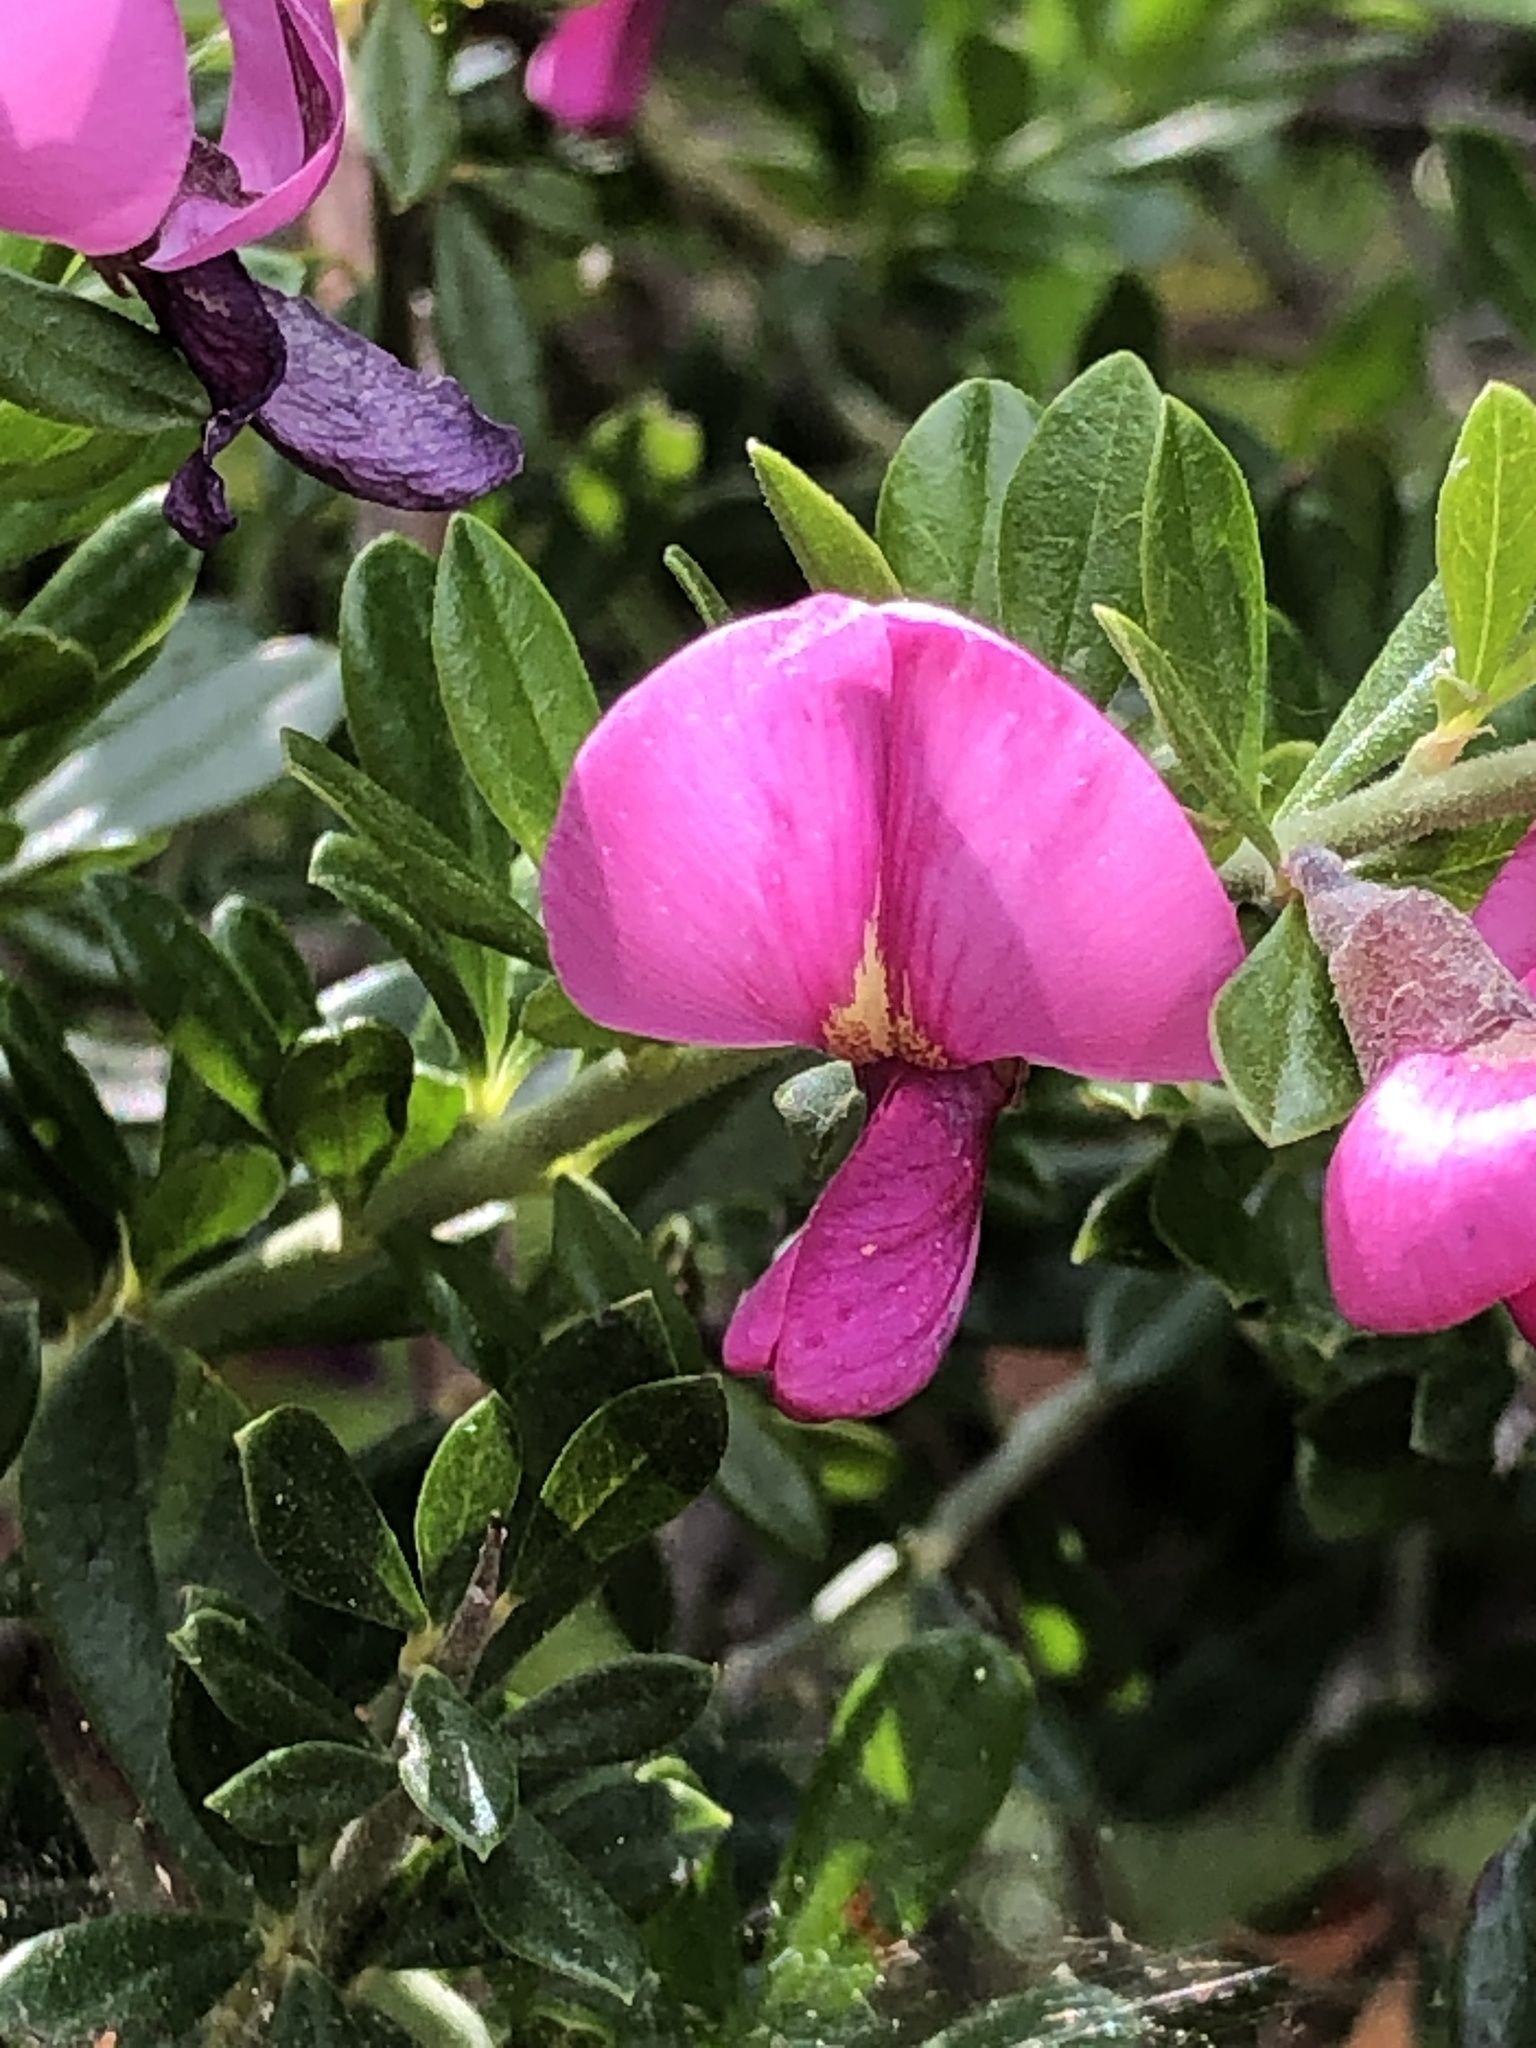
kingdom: Plantae
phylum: Tracheophyta
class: Magnoliopsida
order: Fabales
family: Fabaceae
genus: Pickeringia
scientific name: Pickeringia montana
